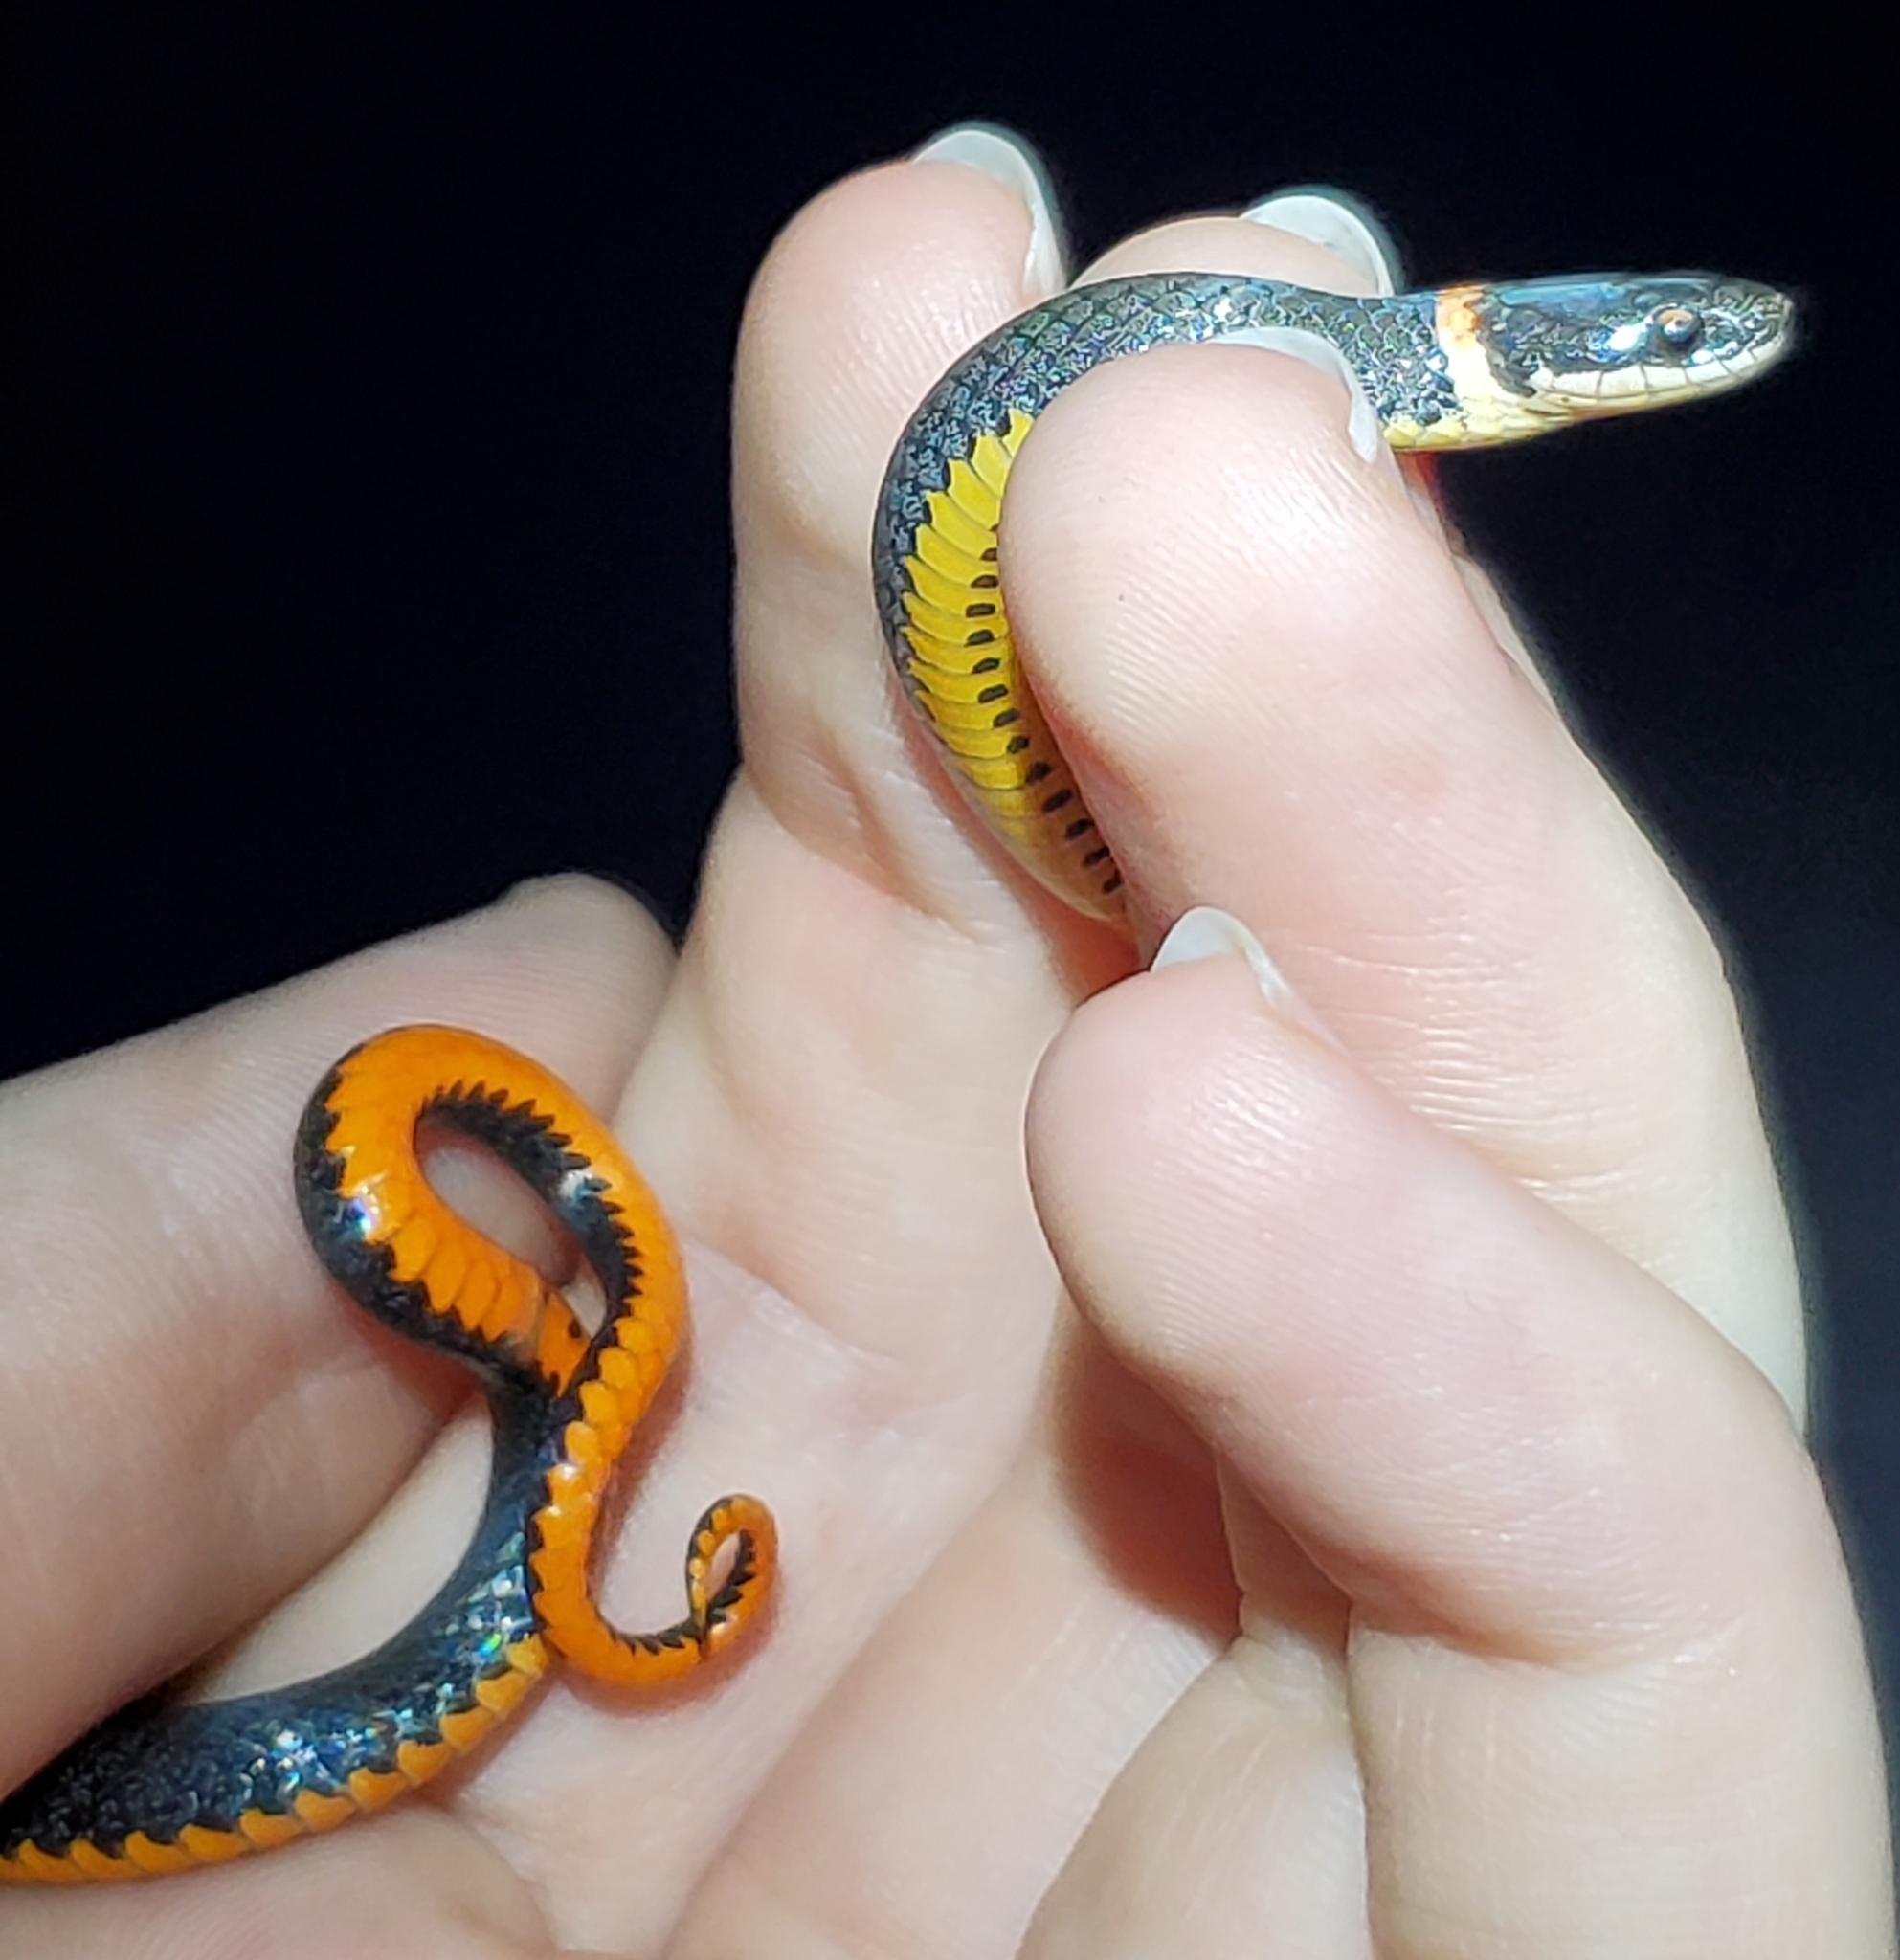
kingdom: Animalia
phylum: Chordata
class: Squamata
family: Colubridae
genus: Diadophis
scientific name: Diadophis punctatus
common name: Ringneck snake
